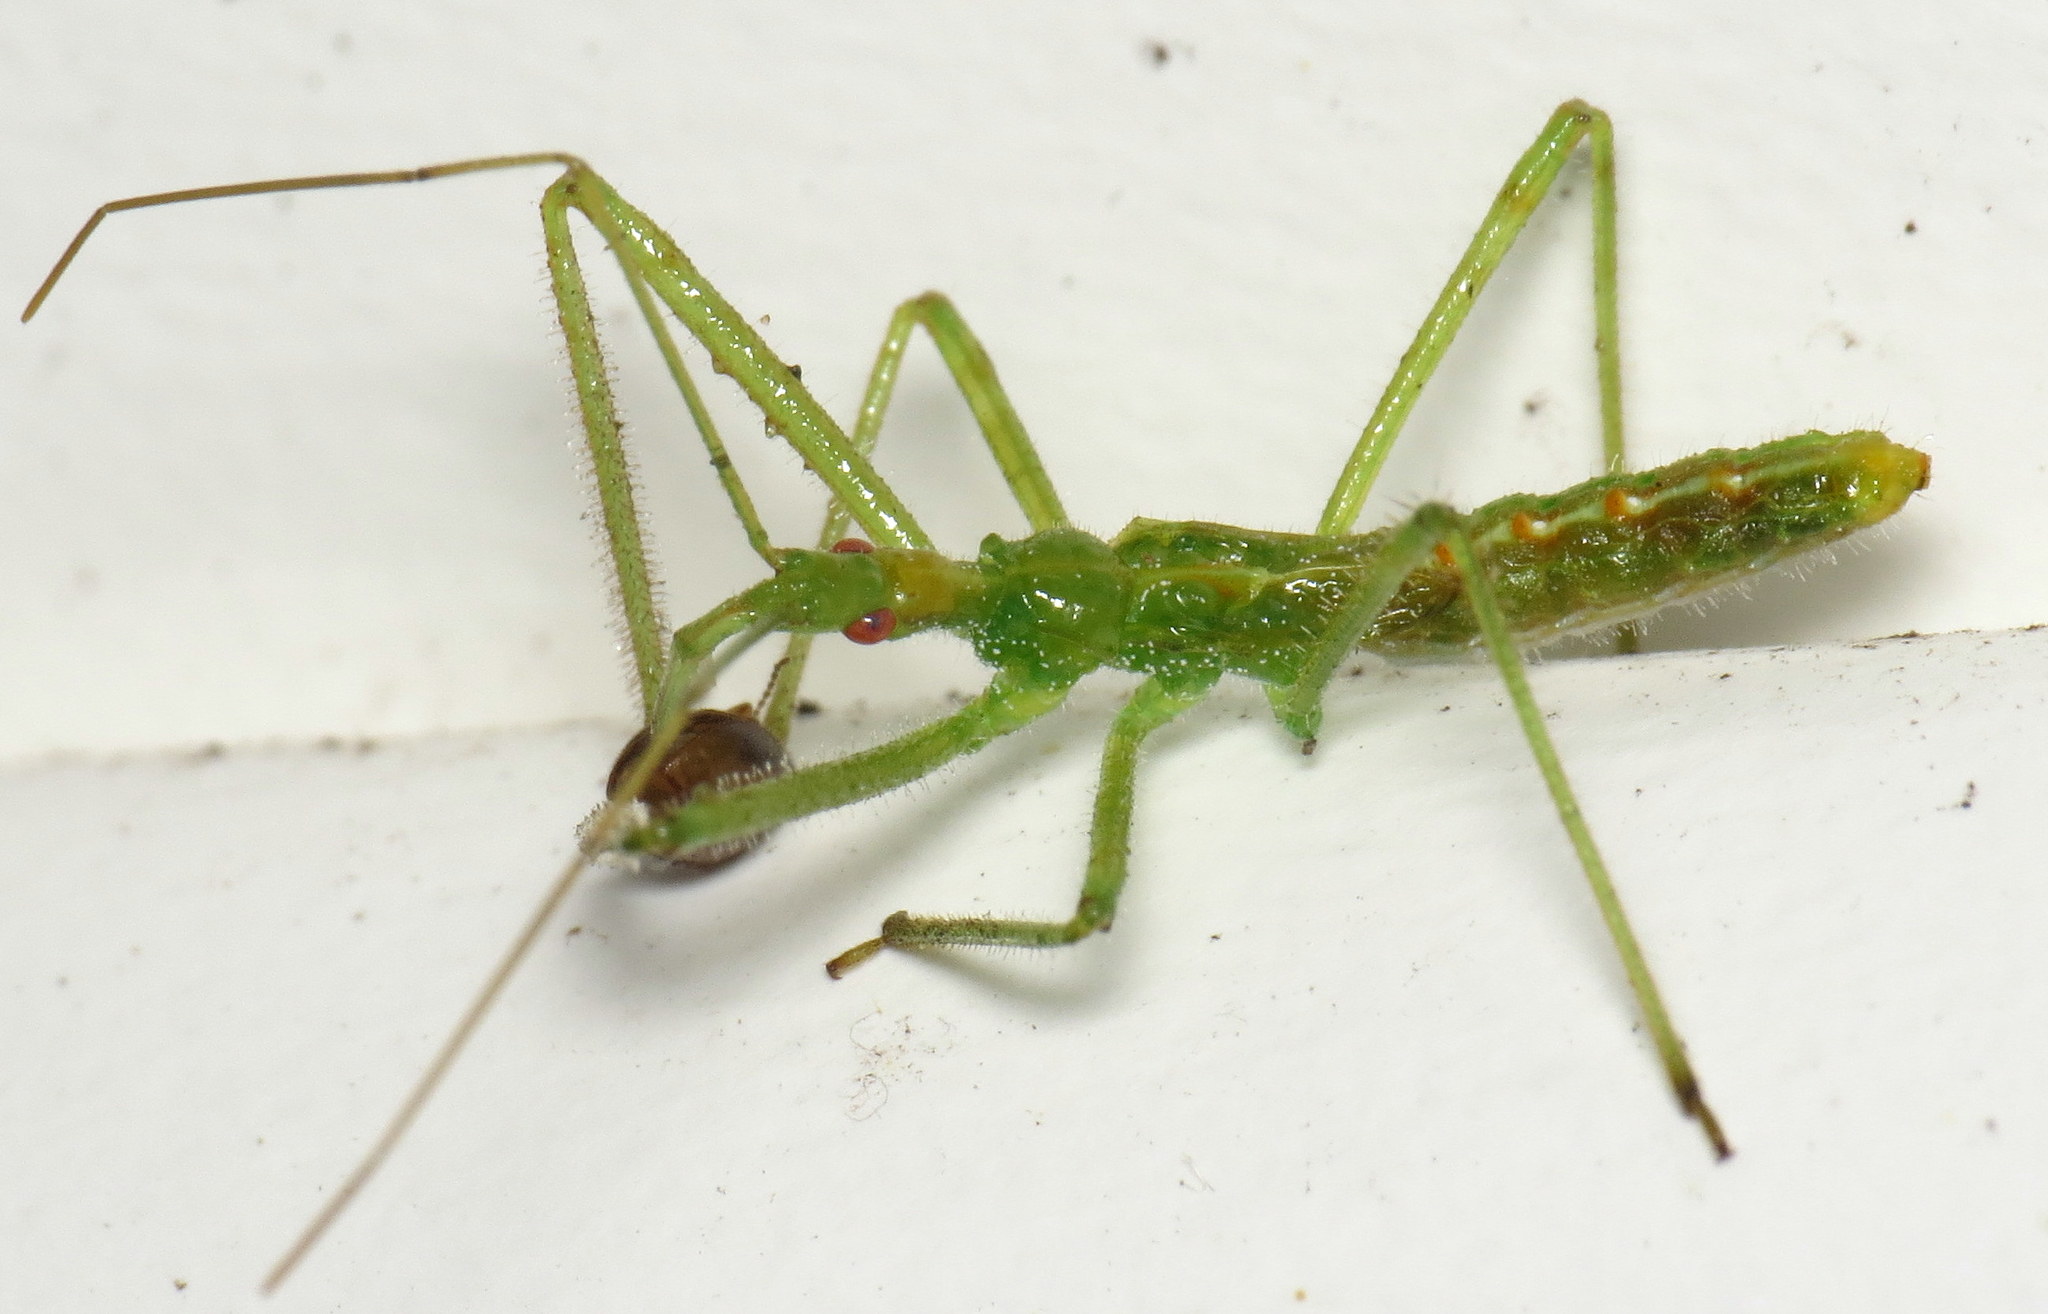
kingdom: Animalia
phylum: Arthropoda
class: Insecta
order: Hemiptera
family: Reduviidae
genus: Zelus
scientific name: Zelus luridus
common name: Pale green assassin bug
